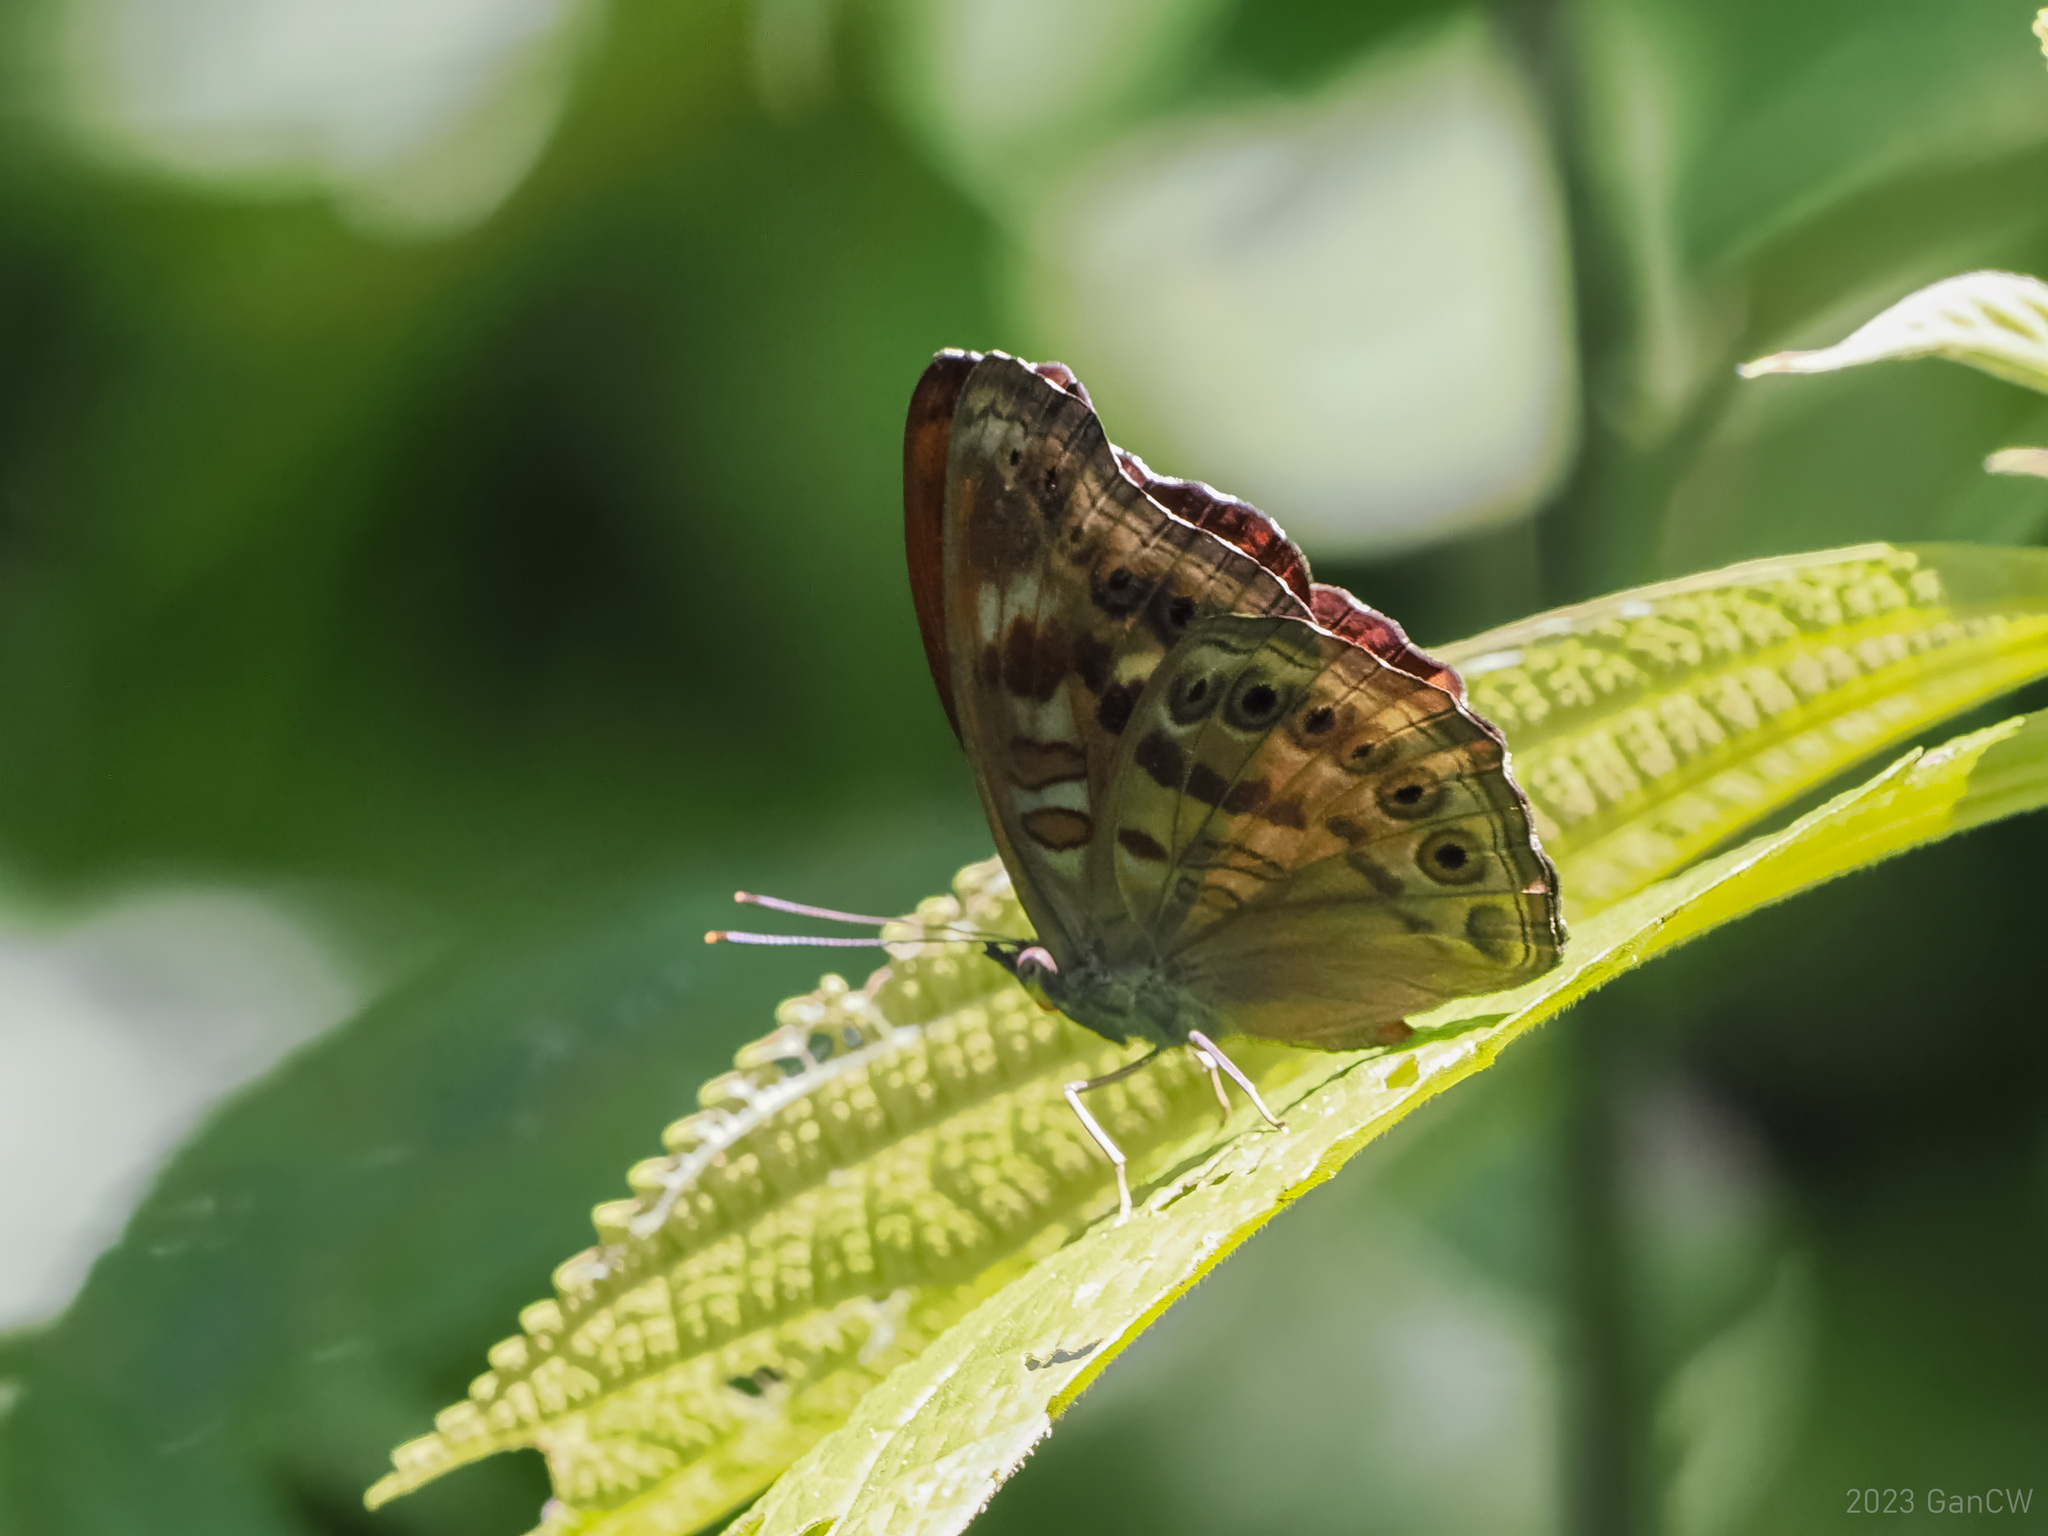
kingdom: Animalia
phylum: Arthropoda
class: Insecta
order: Lepidoptera
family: Nymphalidae
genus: Pseudergolis
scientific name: Pseudergolis avesta
